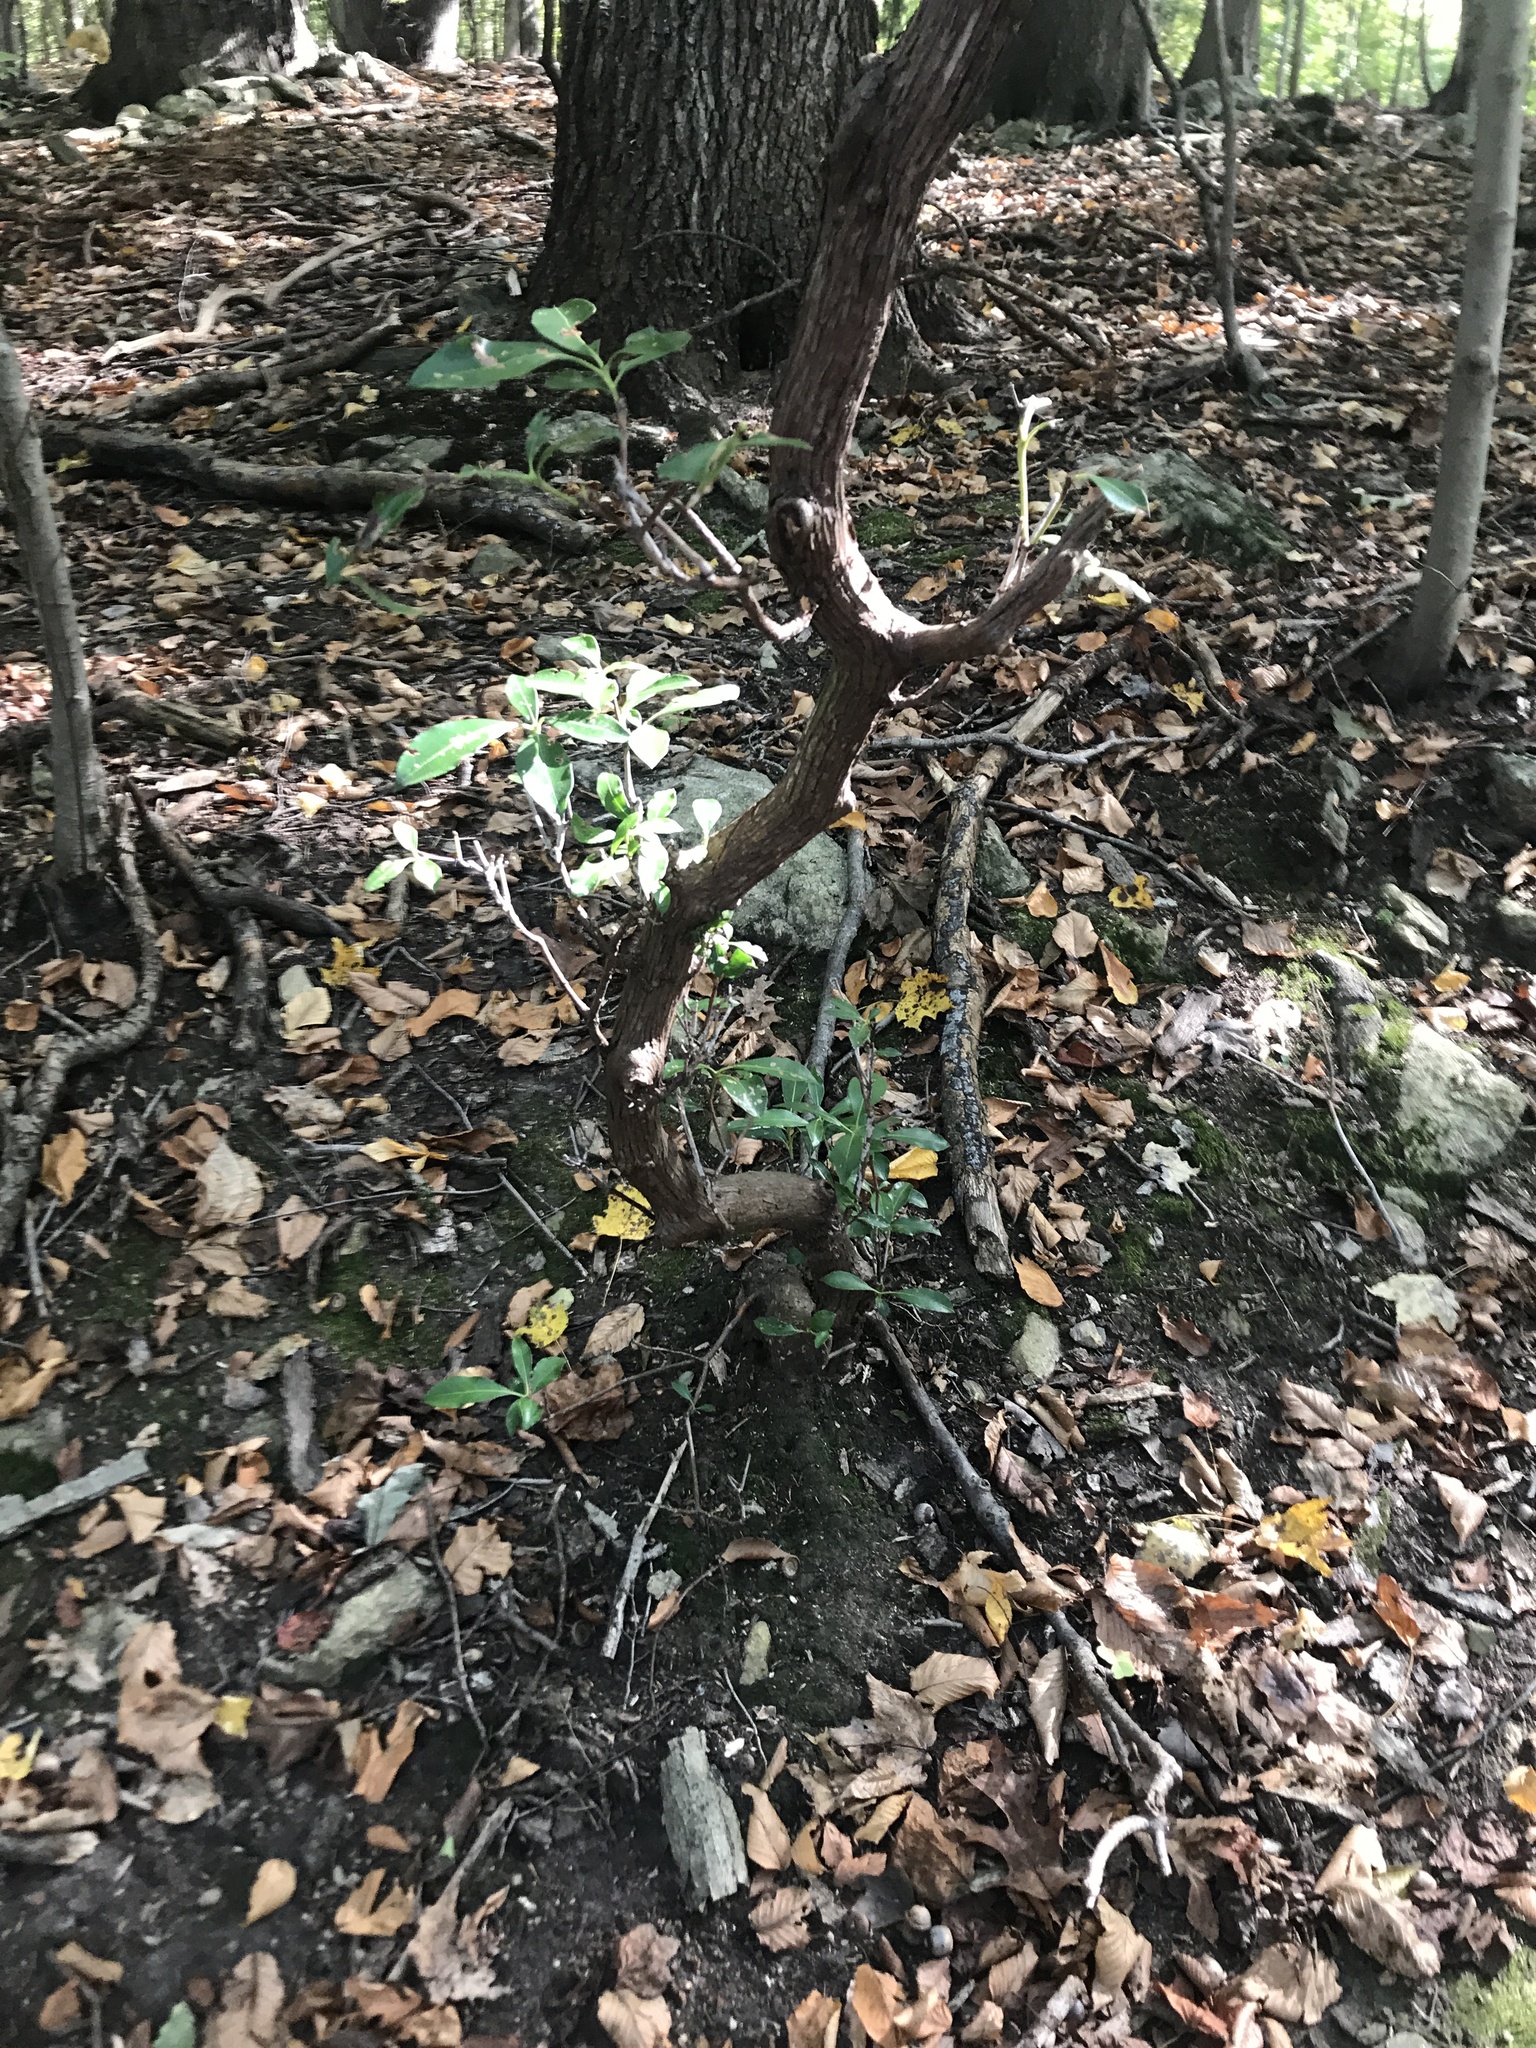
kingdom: Plantae
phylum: Tracheophyta
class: Magnoliopsida
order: Ericales
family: Ericaceae
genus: Kalmia
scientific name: Kalmia latifolia
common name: Mountain-laurel
